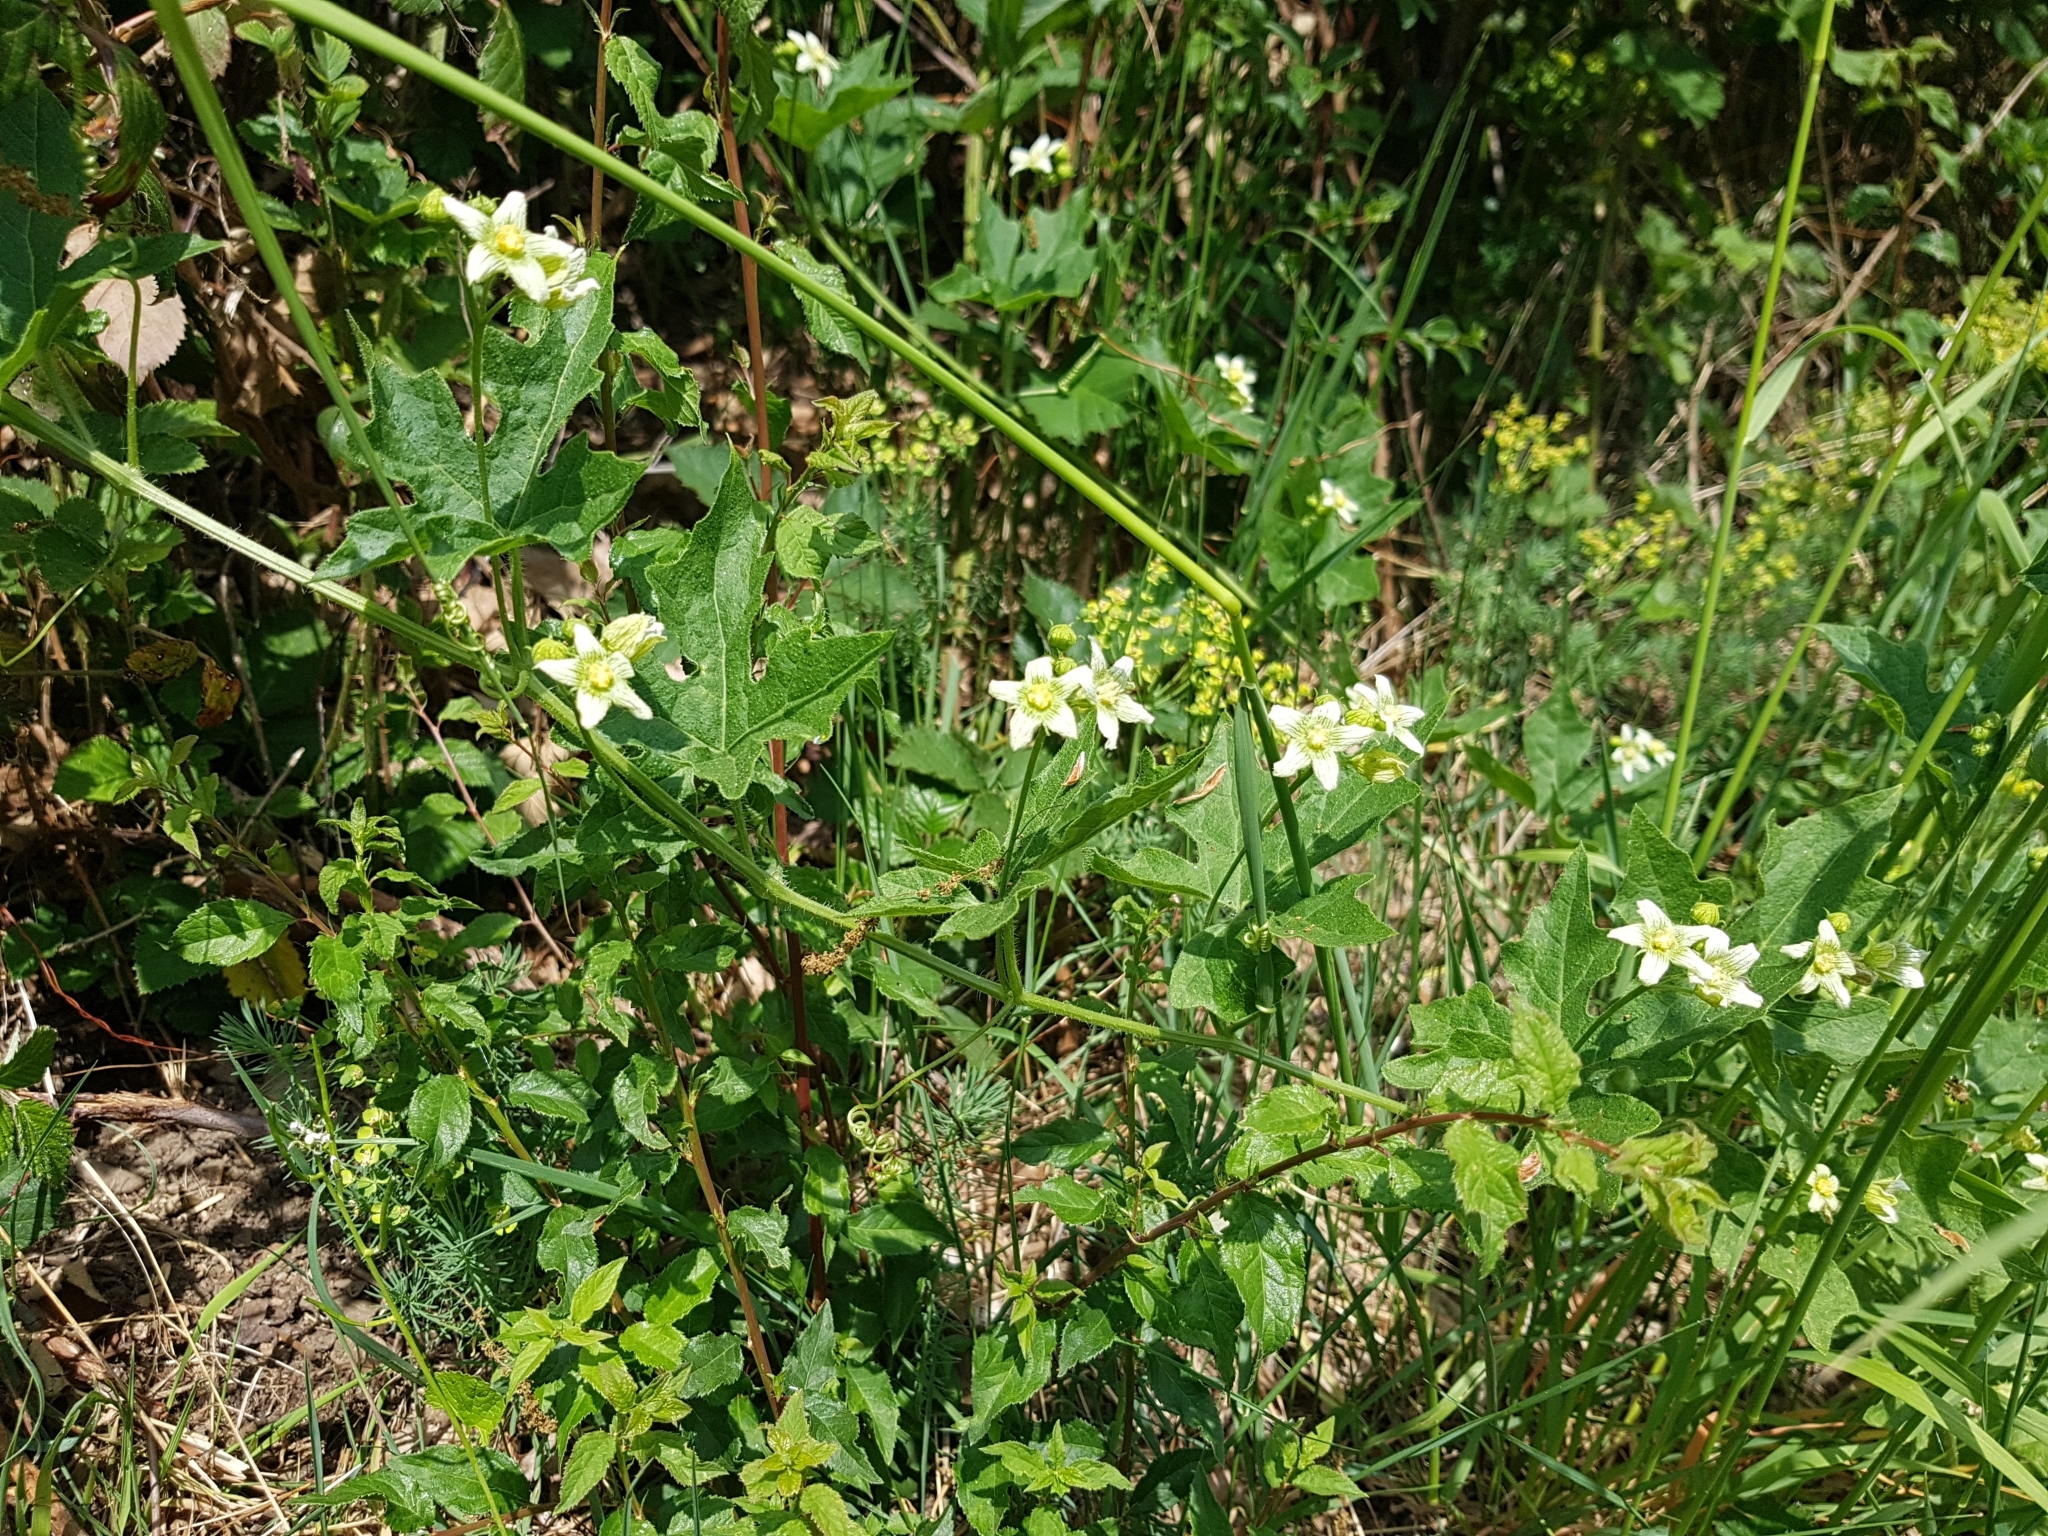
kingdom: Plantae
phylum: Tracheophyta
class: Magnoliopsida
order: Cucurbitales
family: Cucurbitaceae
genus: Bryonia
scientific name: Bryonia cretica
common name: Cretan bryony
